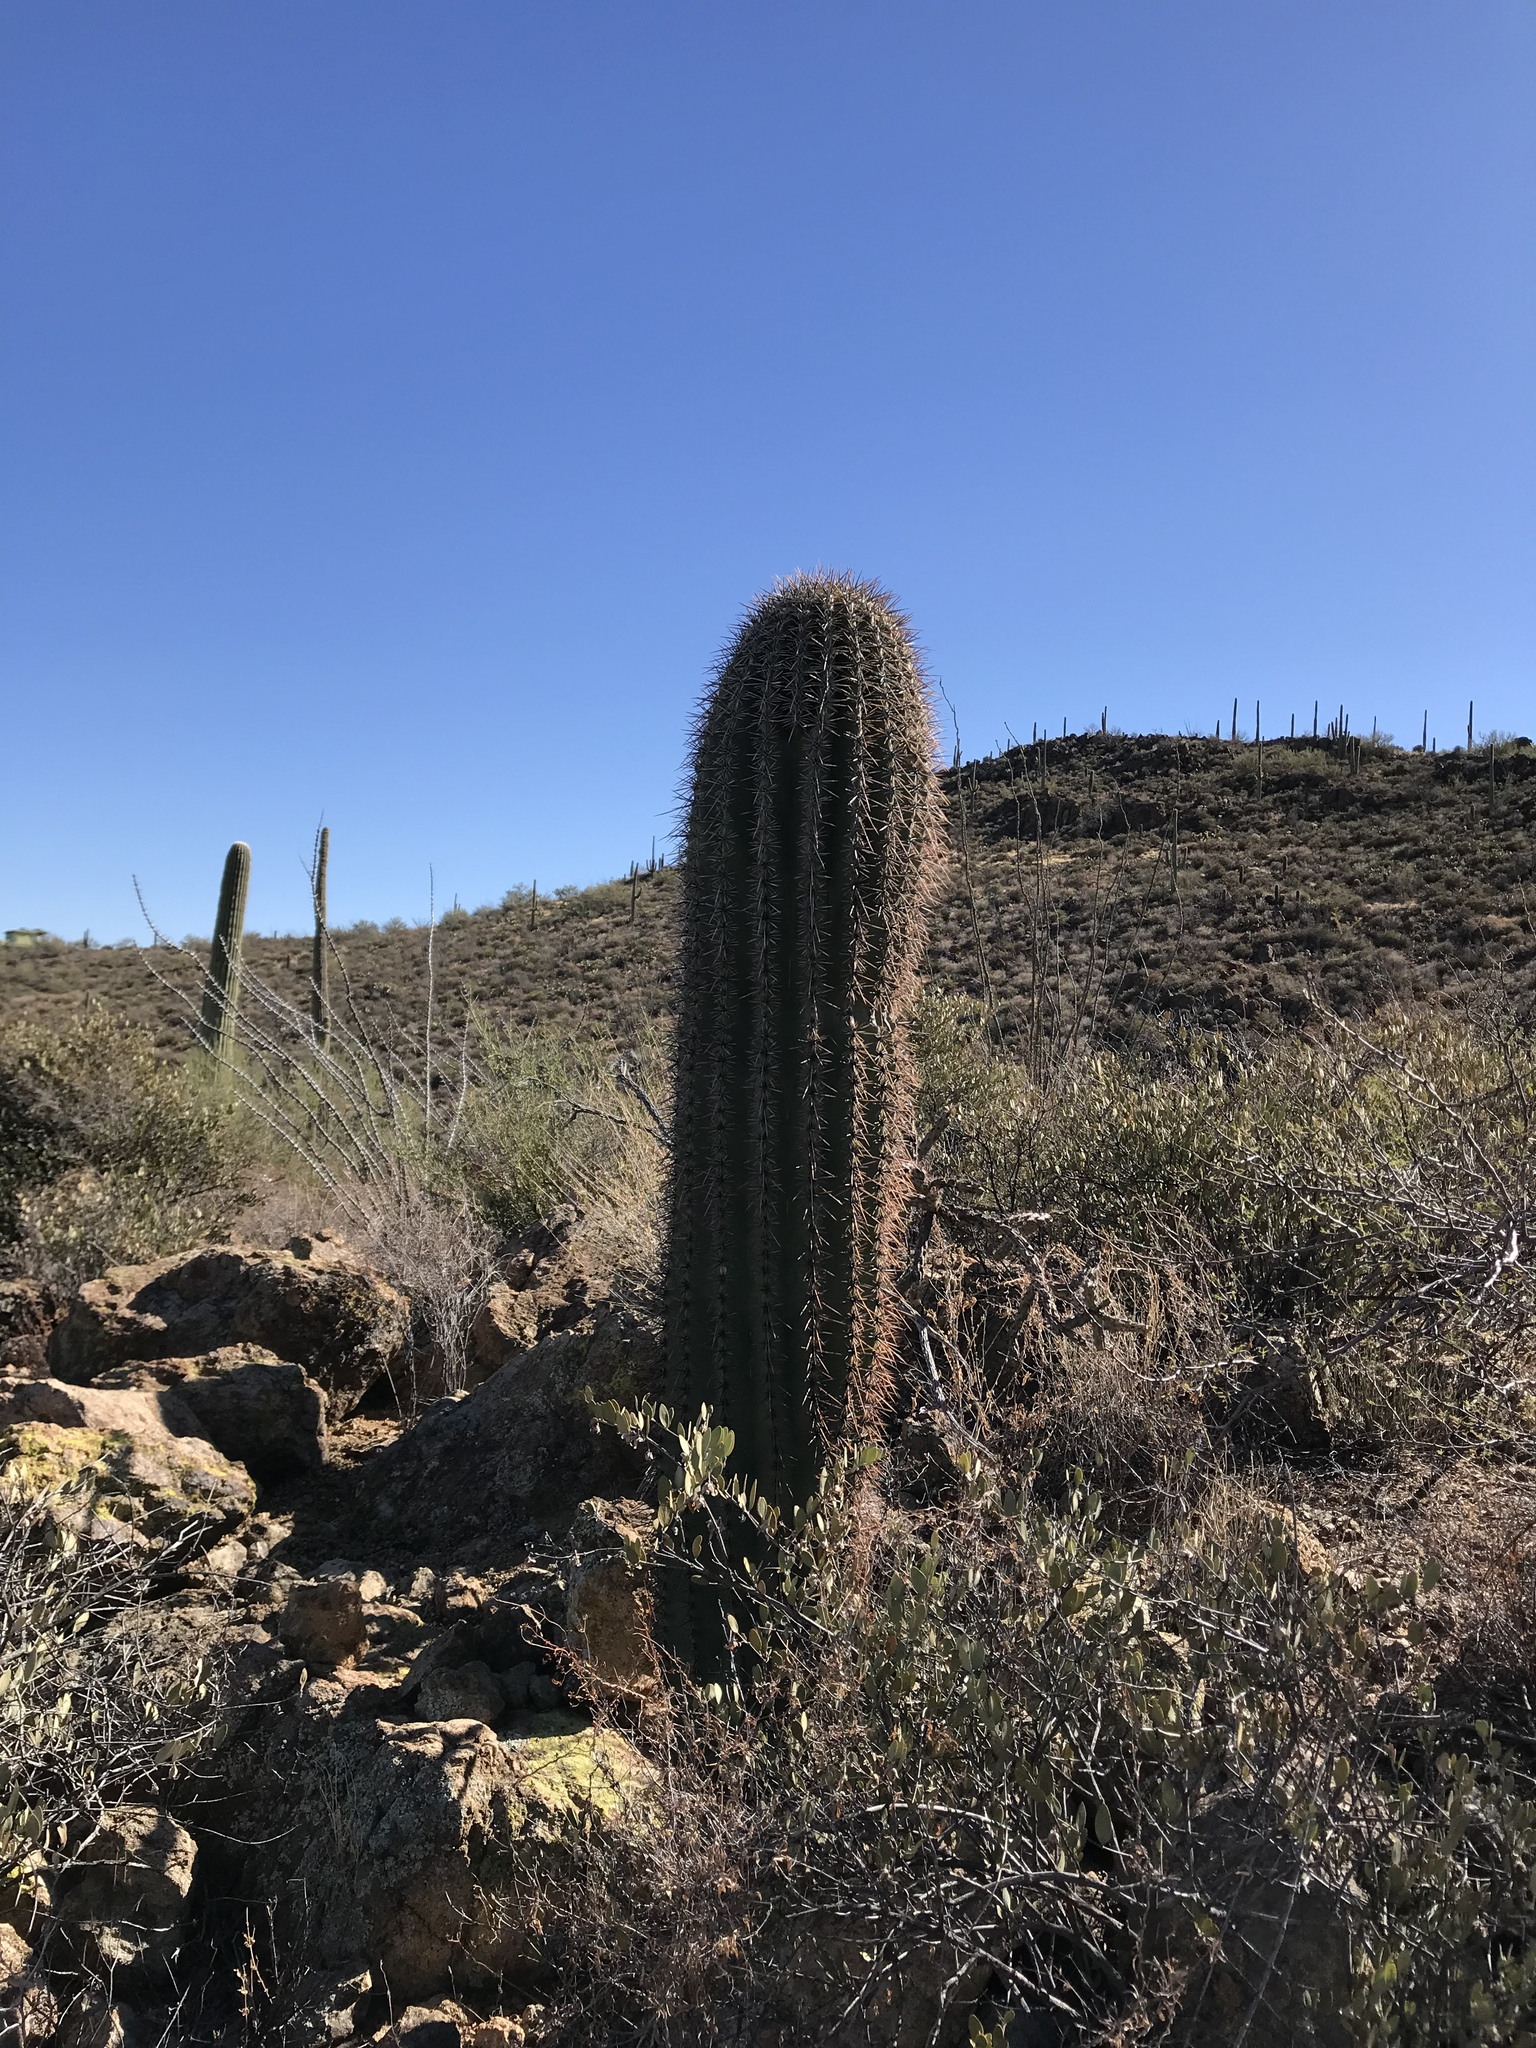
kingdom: Plantae
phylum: Tracheophyta
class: Magnoliopsida
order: Caryophyllales
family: Cactaceae
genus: Carnegiea
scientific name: Carnegiea gigantea
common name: Saguaro
